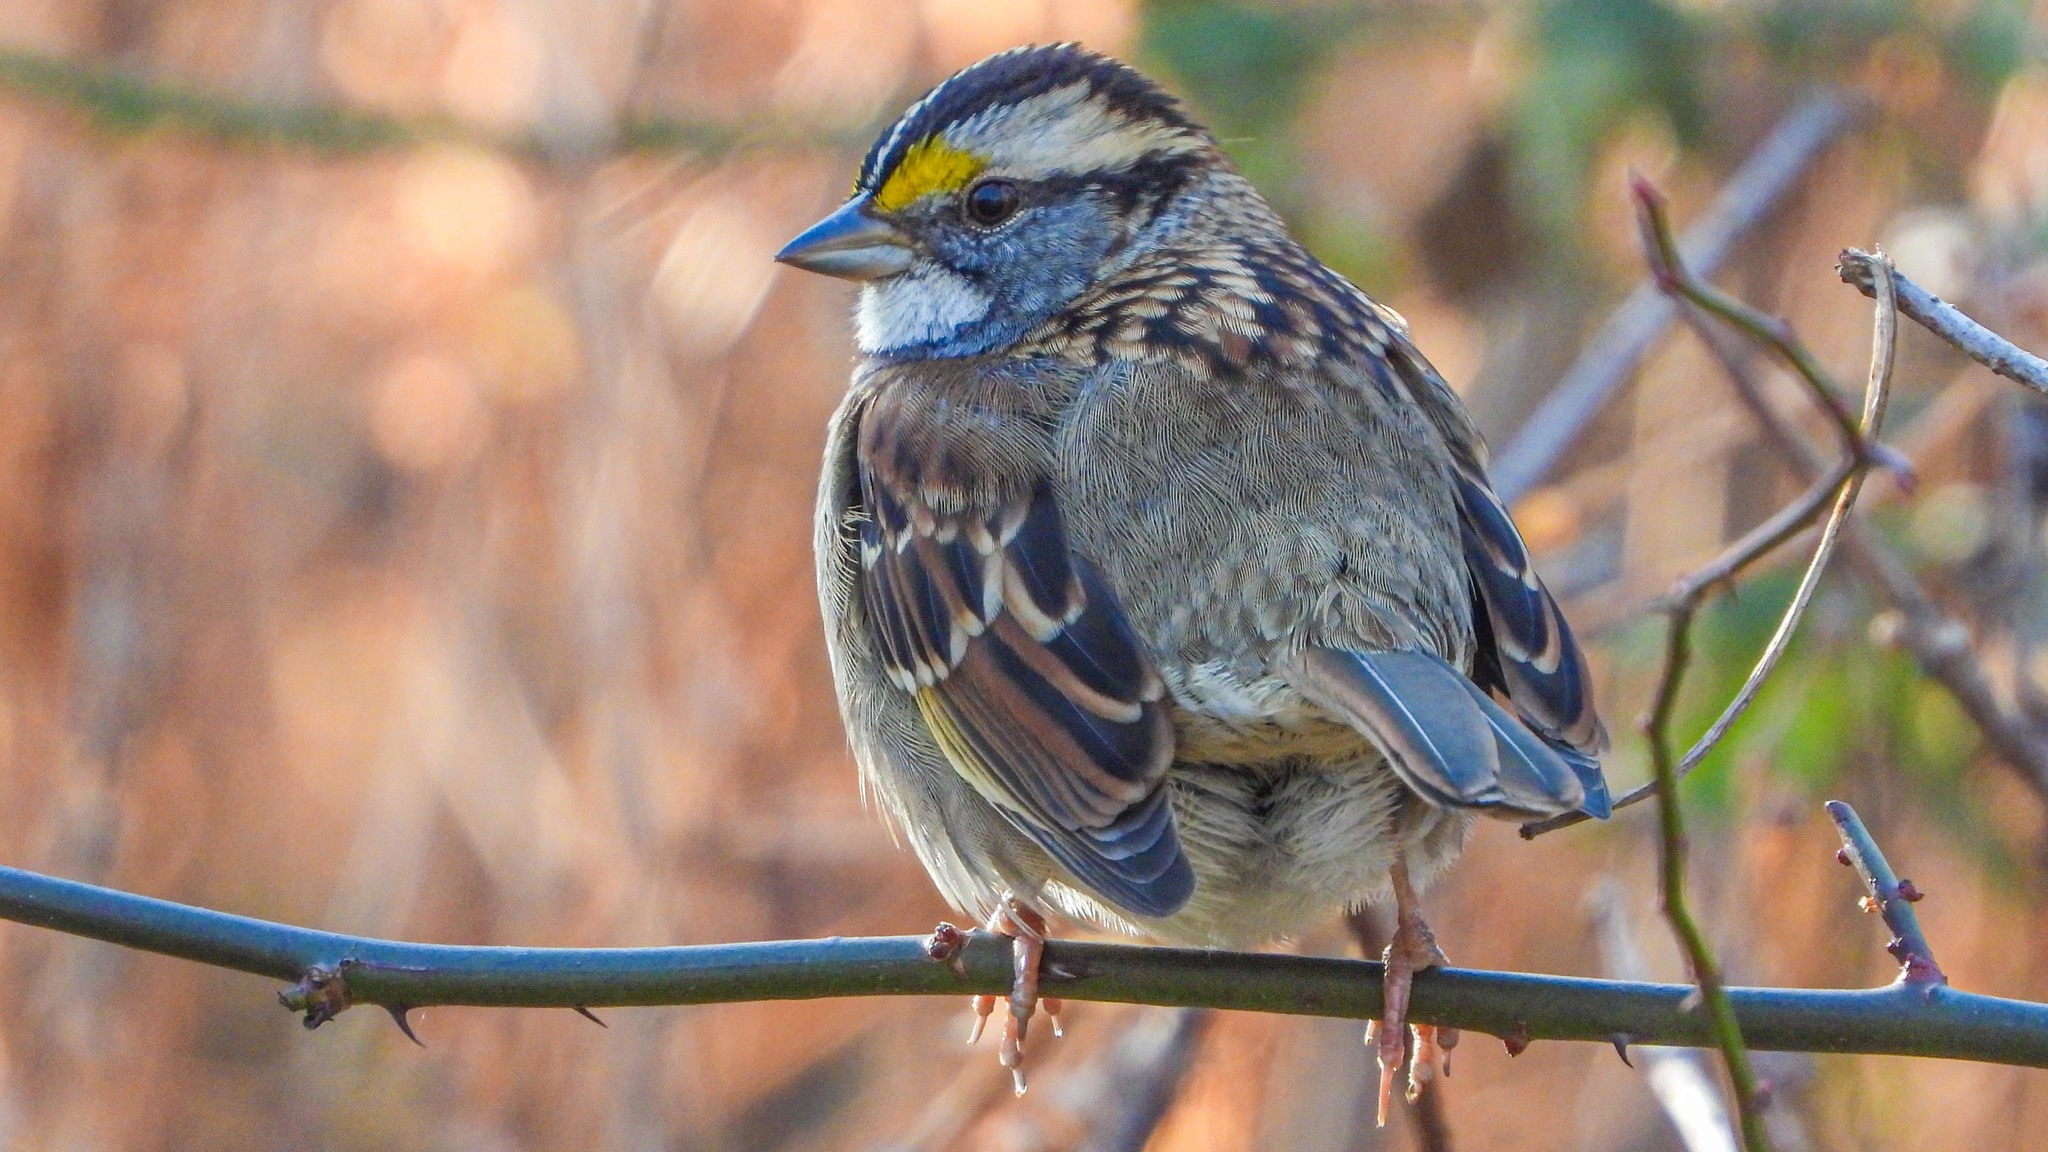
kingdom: Animalia
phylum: Chordata
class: Aves
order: Passeriformes
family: Passerellidae
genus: Zonotrichia
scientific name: Zonotrichia albicollis
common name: White-throated sparrow
